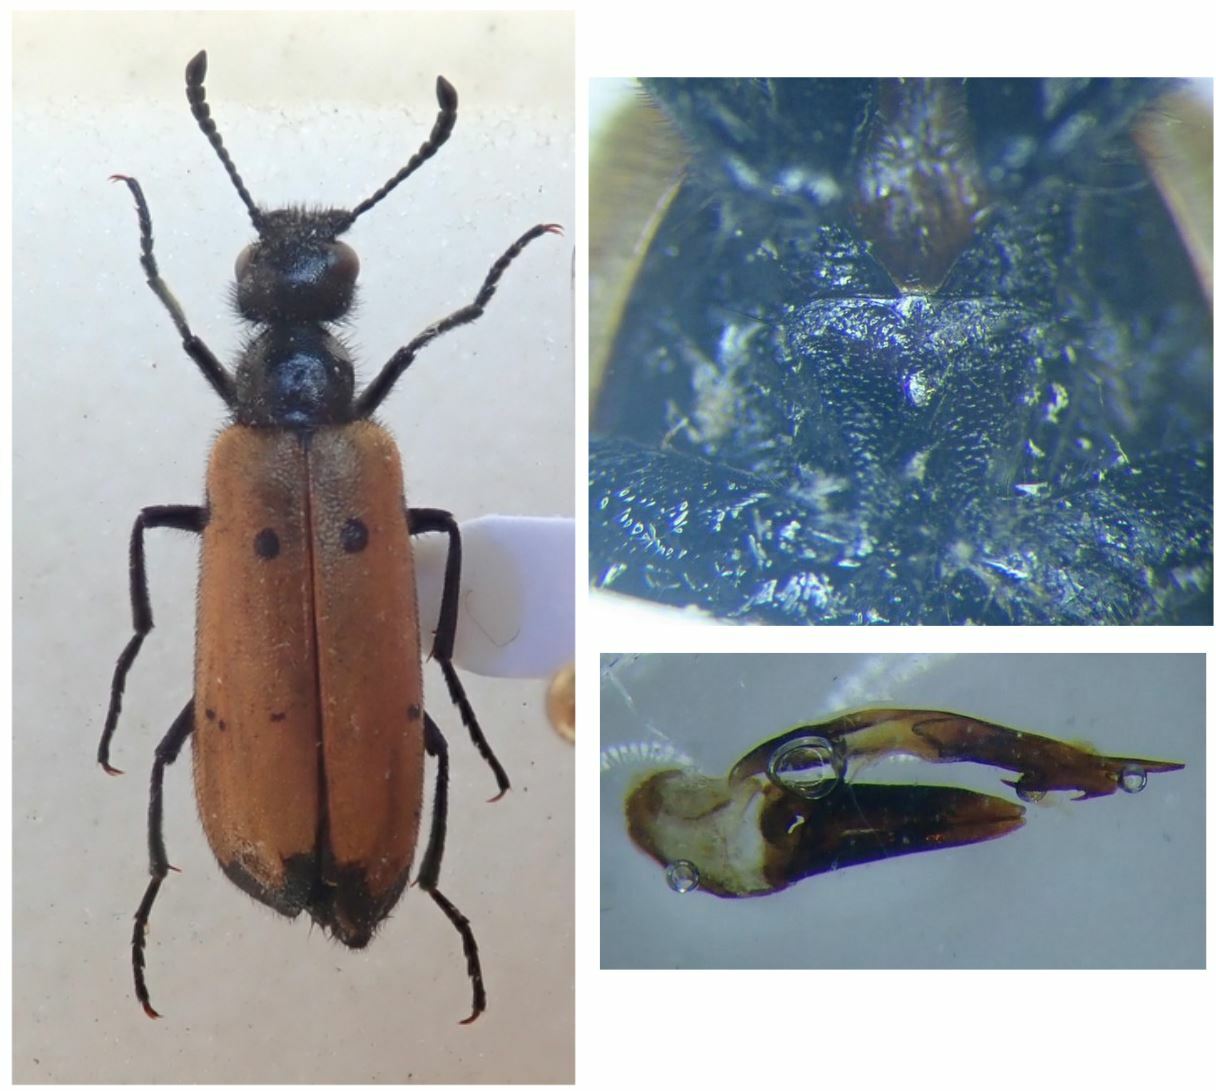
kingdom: Animalia
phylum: Arthropoda
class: Insecta
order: Coleoptera
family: Meloidae
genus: Mylabris
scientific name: Mylabris quadripunctata
